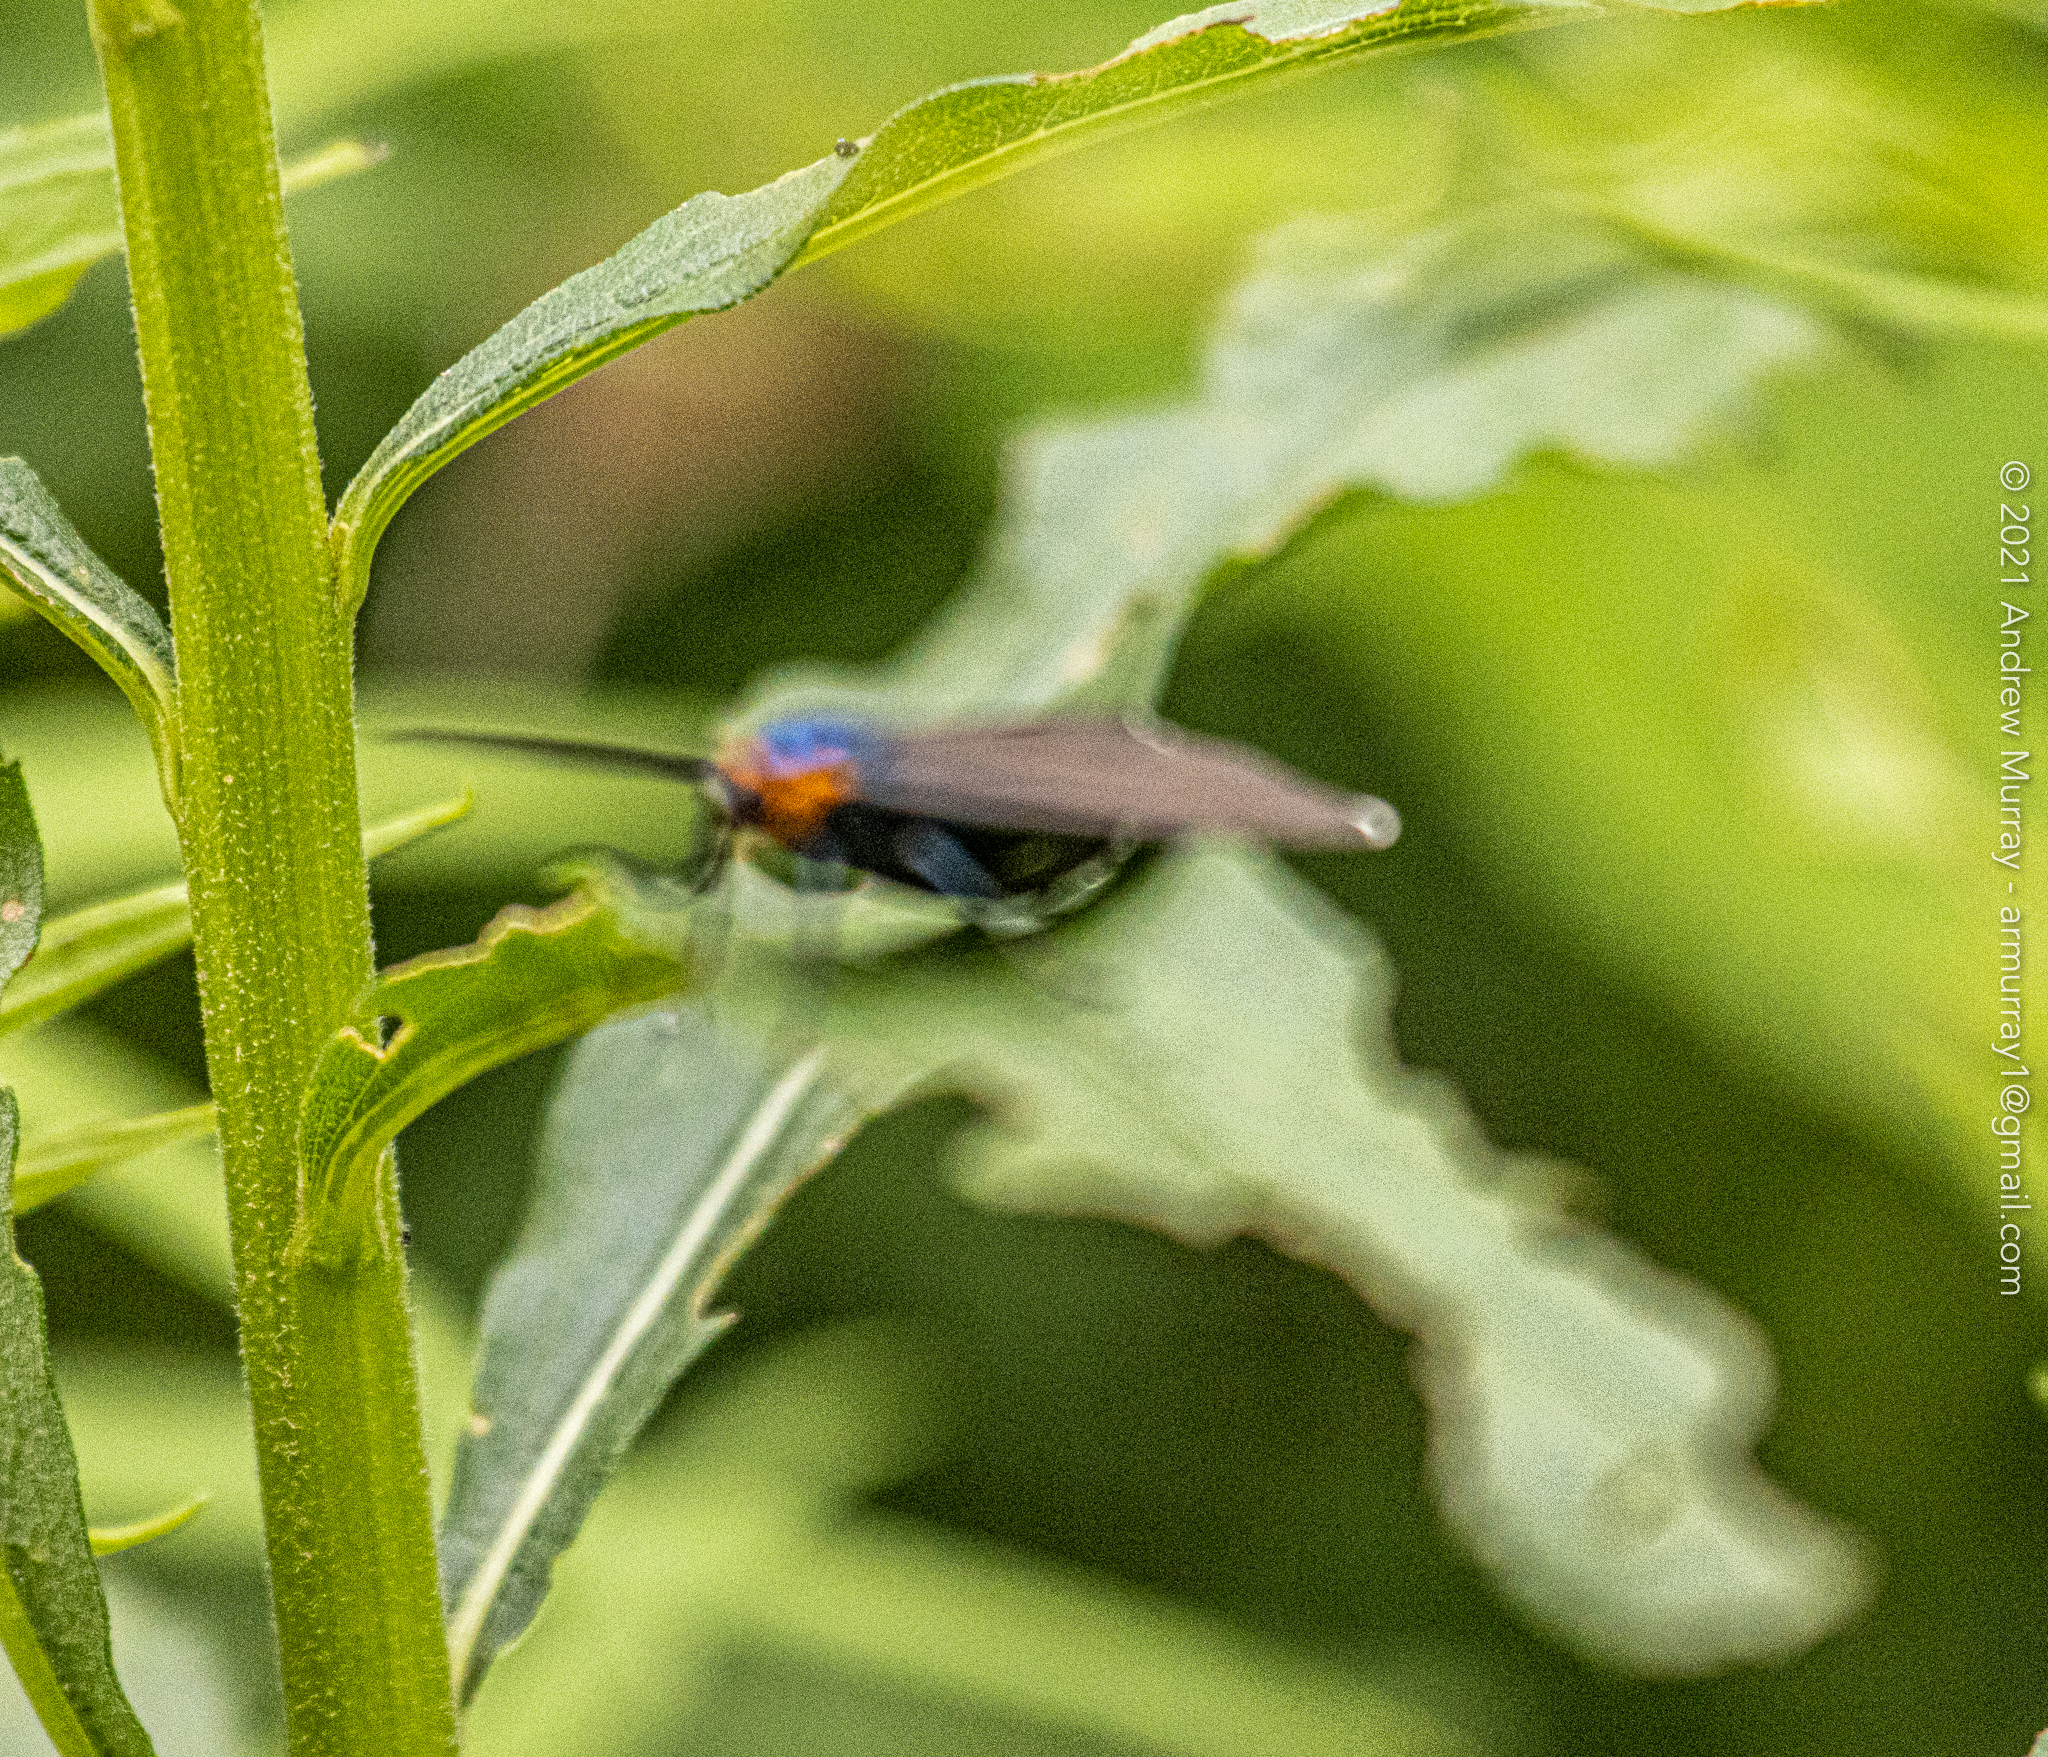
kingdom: Animalia
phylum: Arthropoda
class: Insecta
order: Lepidoptera
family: Erebidae
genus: Ctenucha
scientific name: Ctenucha virginica
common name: Virginia ctenucha moth
